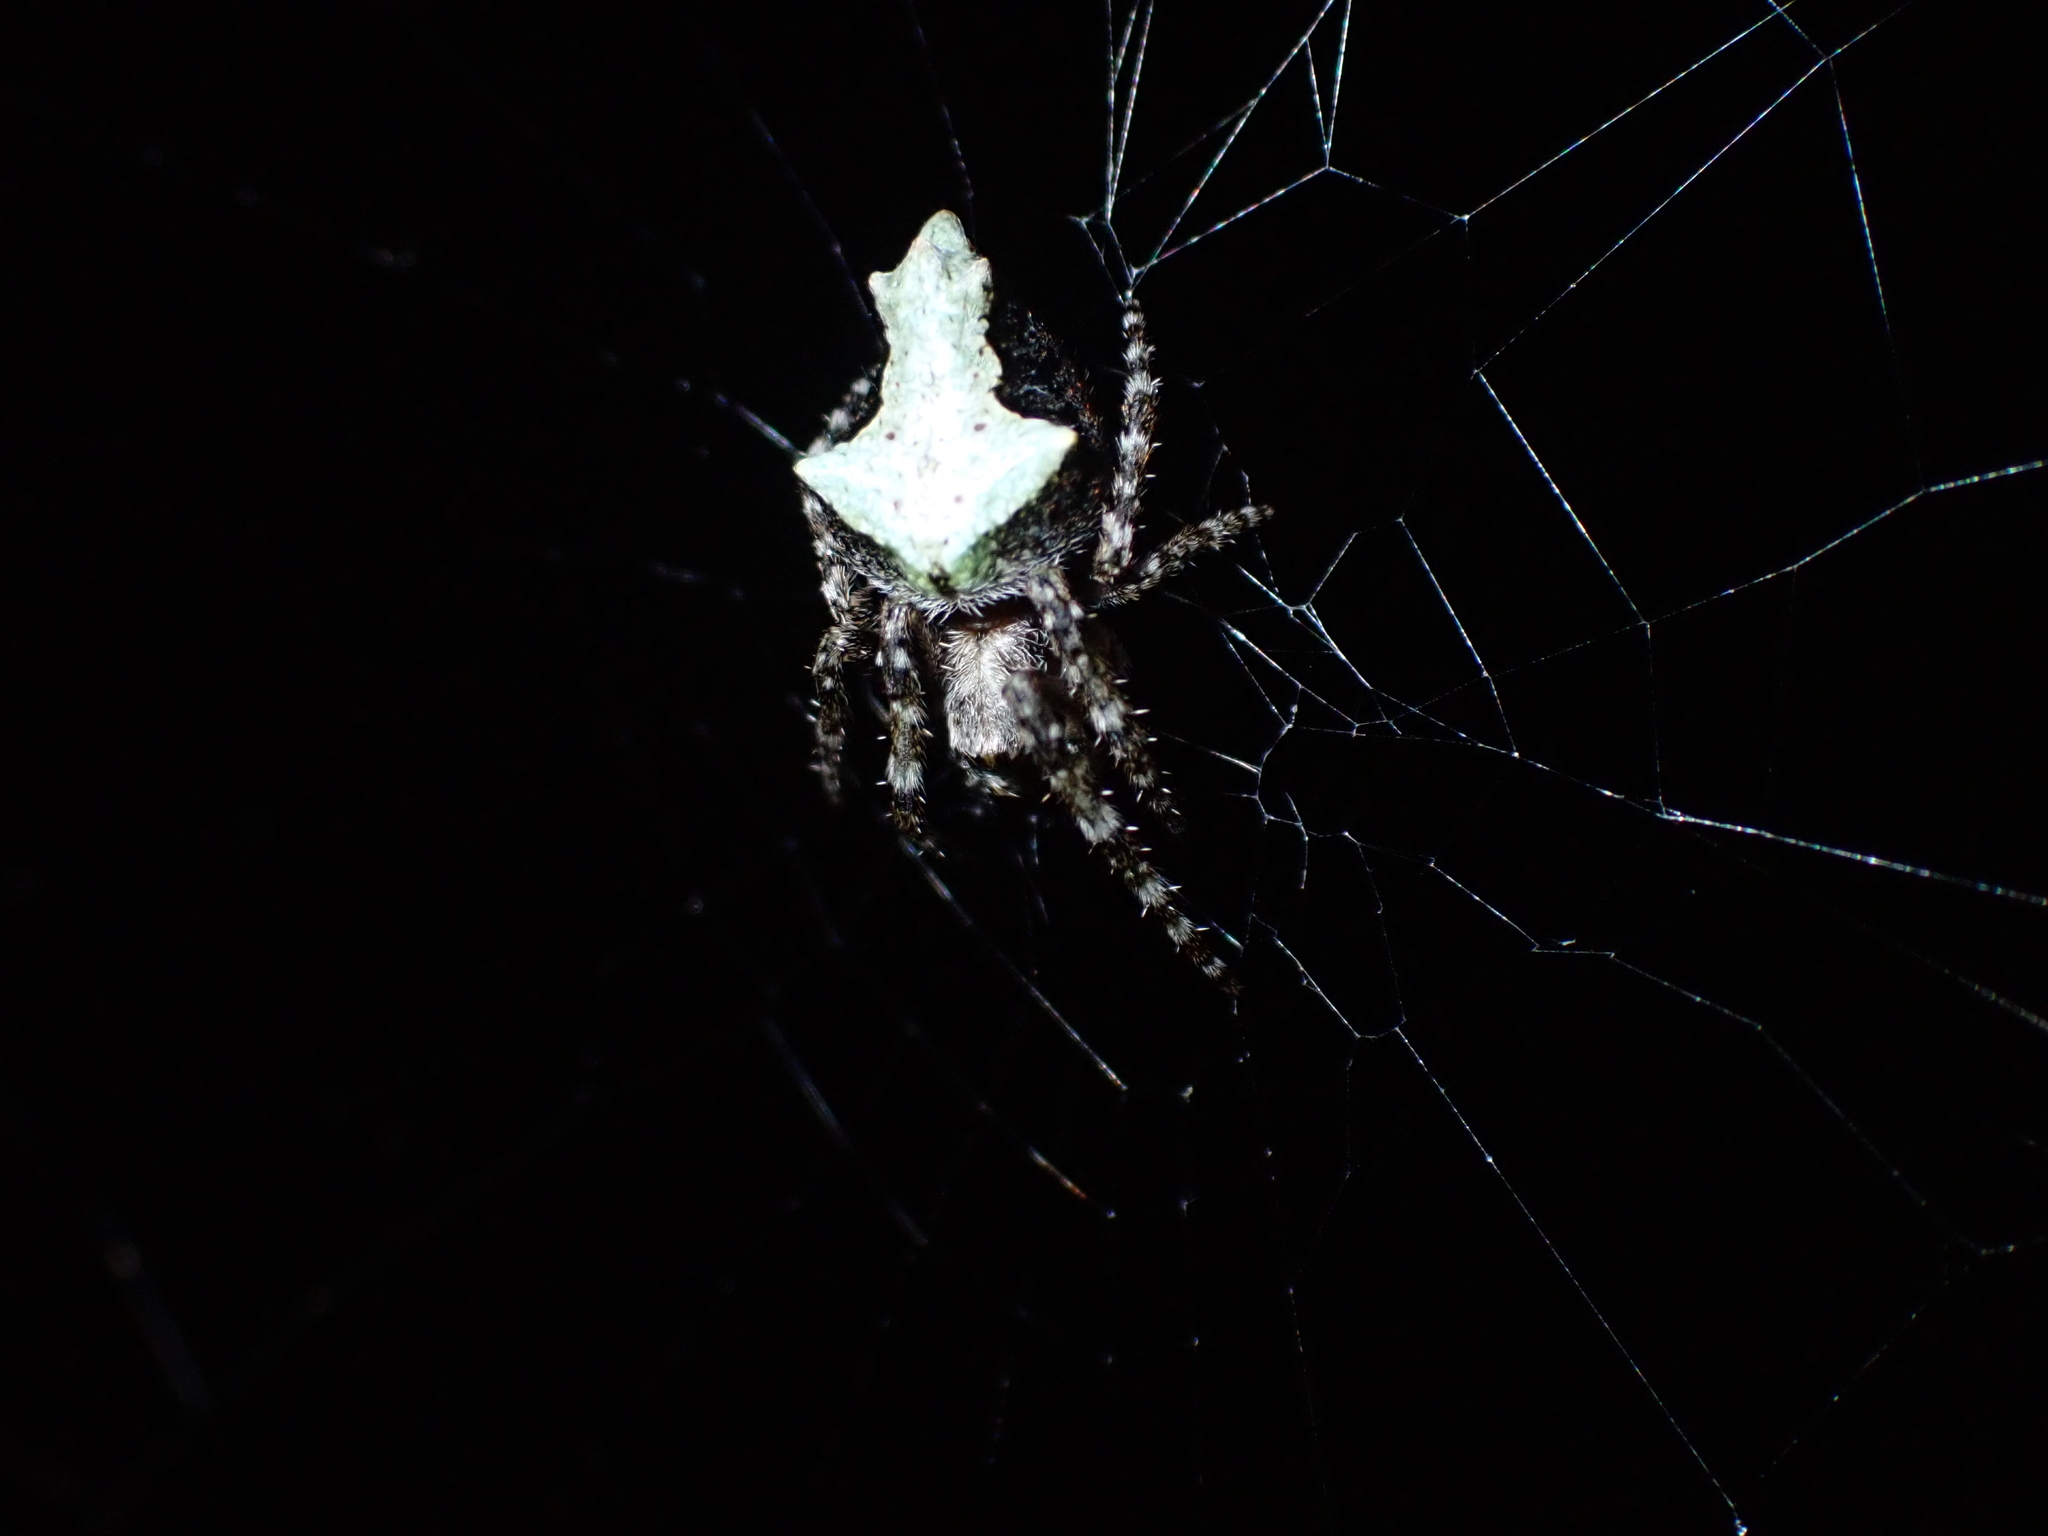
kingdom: Animalia
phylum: Arthropoda
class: Arachnida
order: Araneae
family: Araneidae
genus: Eriophora
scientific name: Eriophora pustulosa
